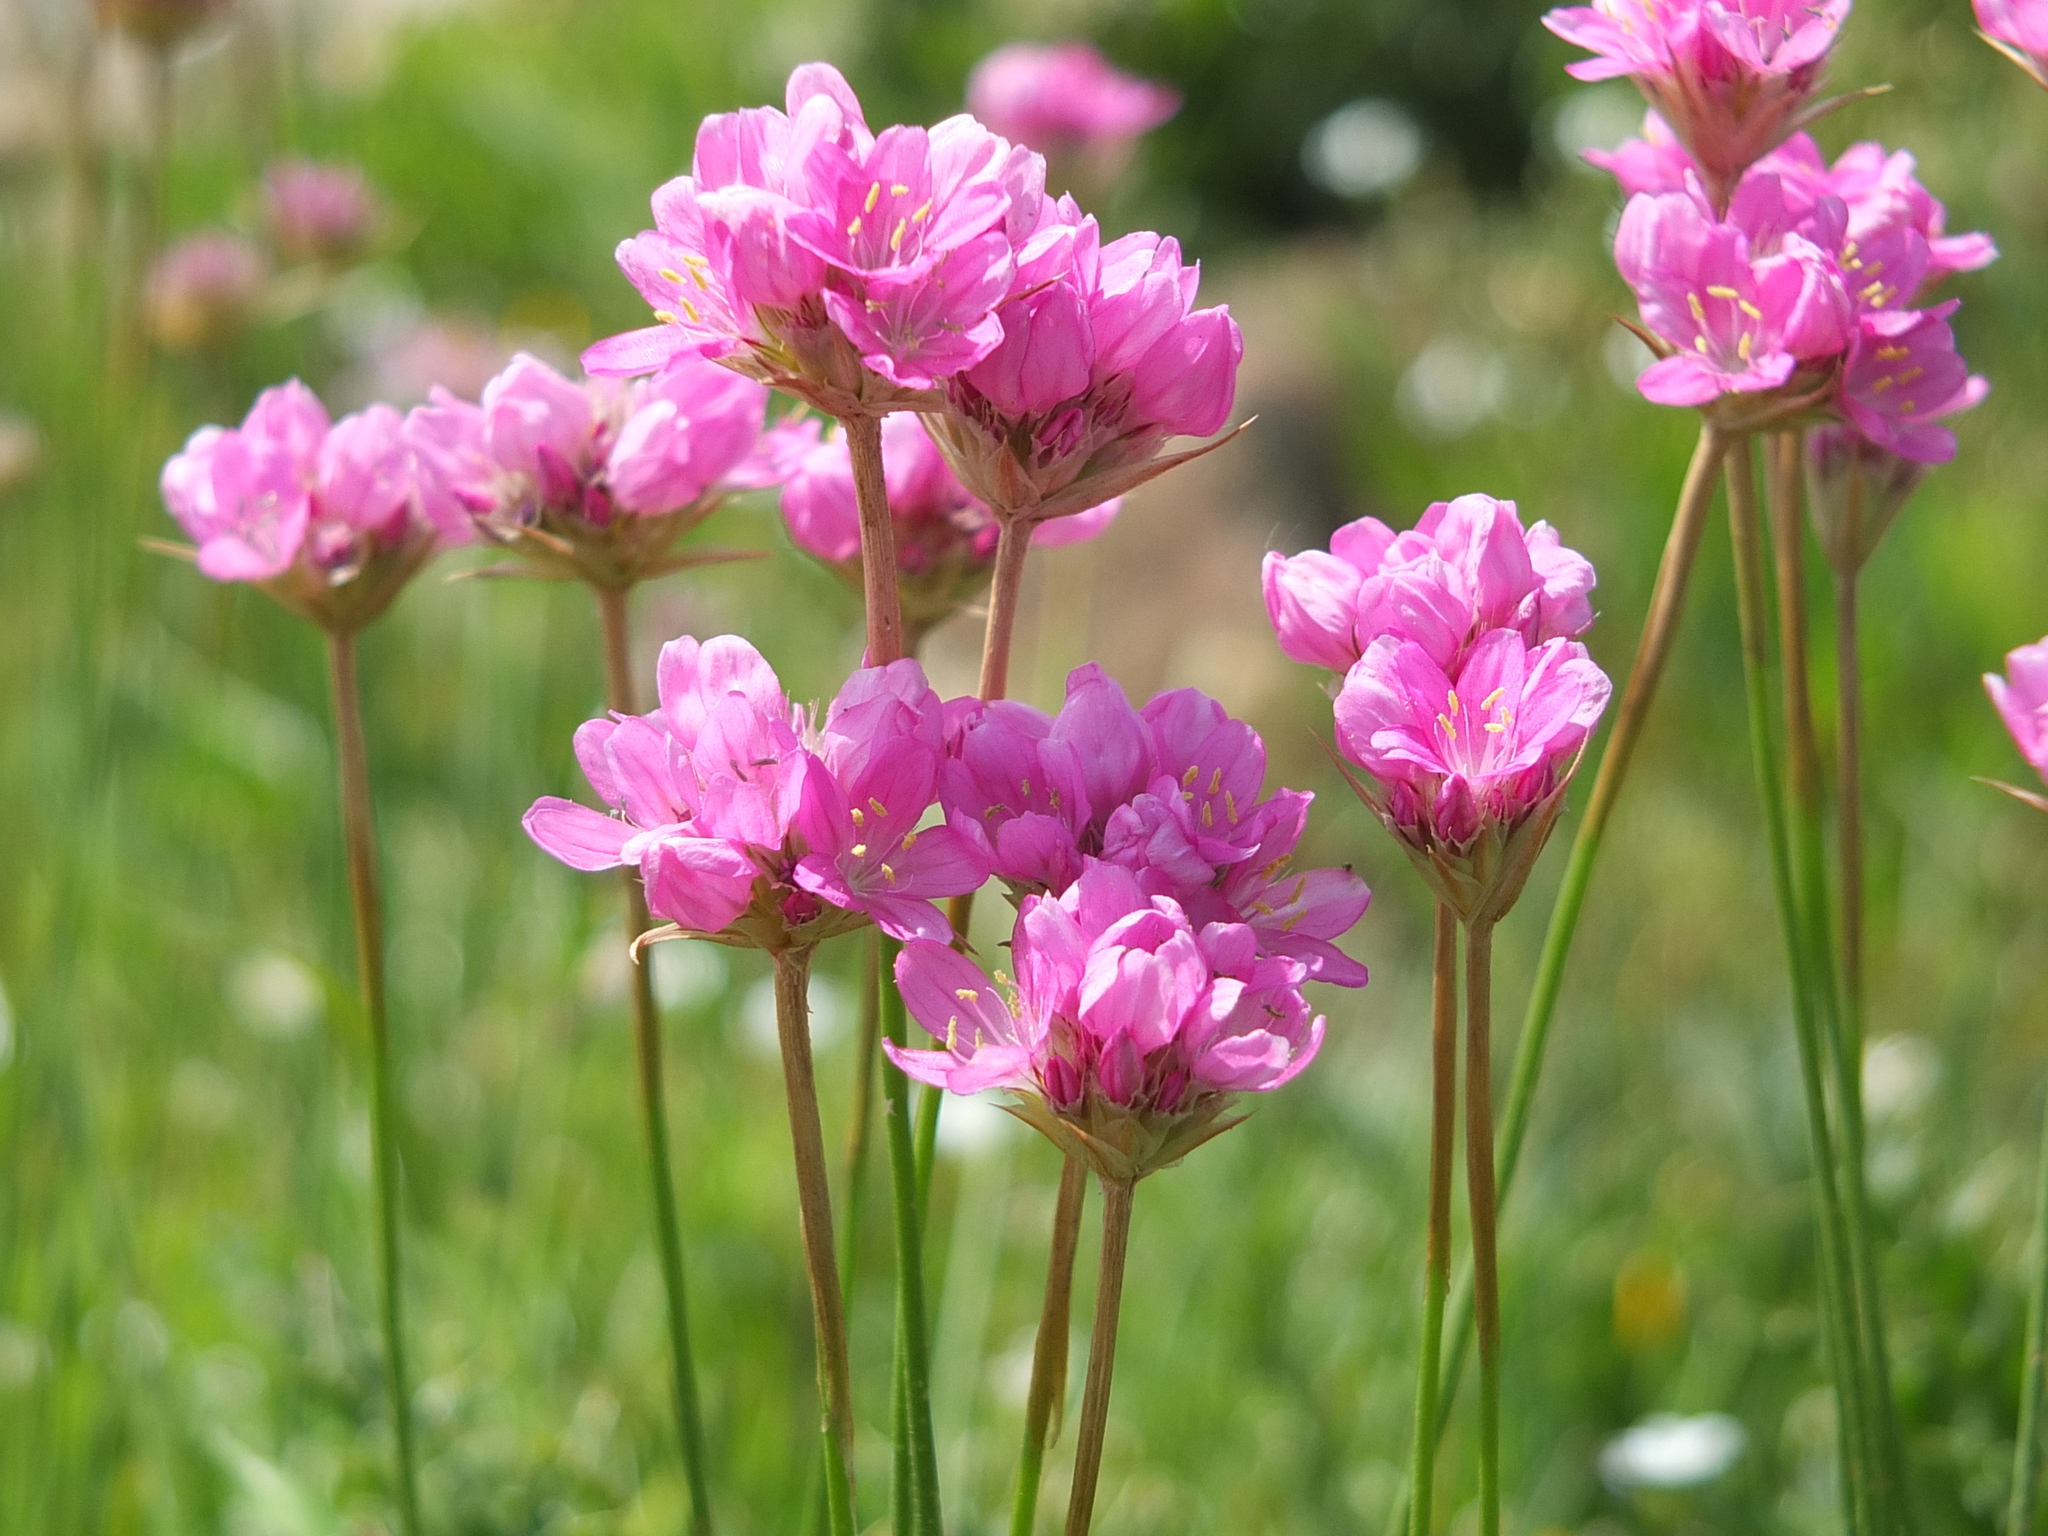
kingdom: Plantae
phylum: Tracheophyta
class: Magnoliopsida
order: Caryophyllales
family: Plumbaginaceae
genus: Armeria
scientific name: Armeria choulettiana
